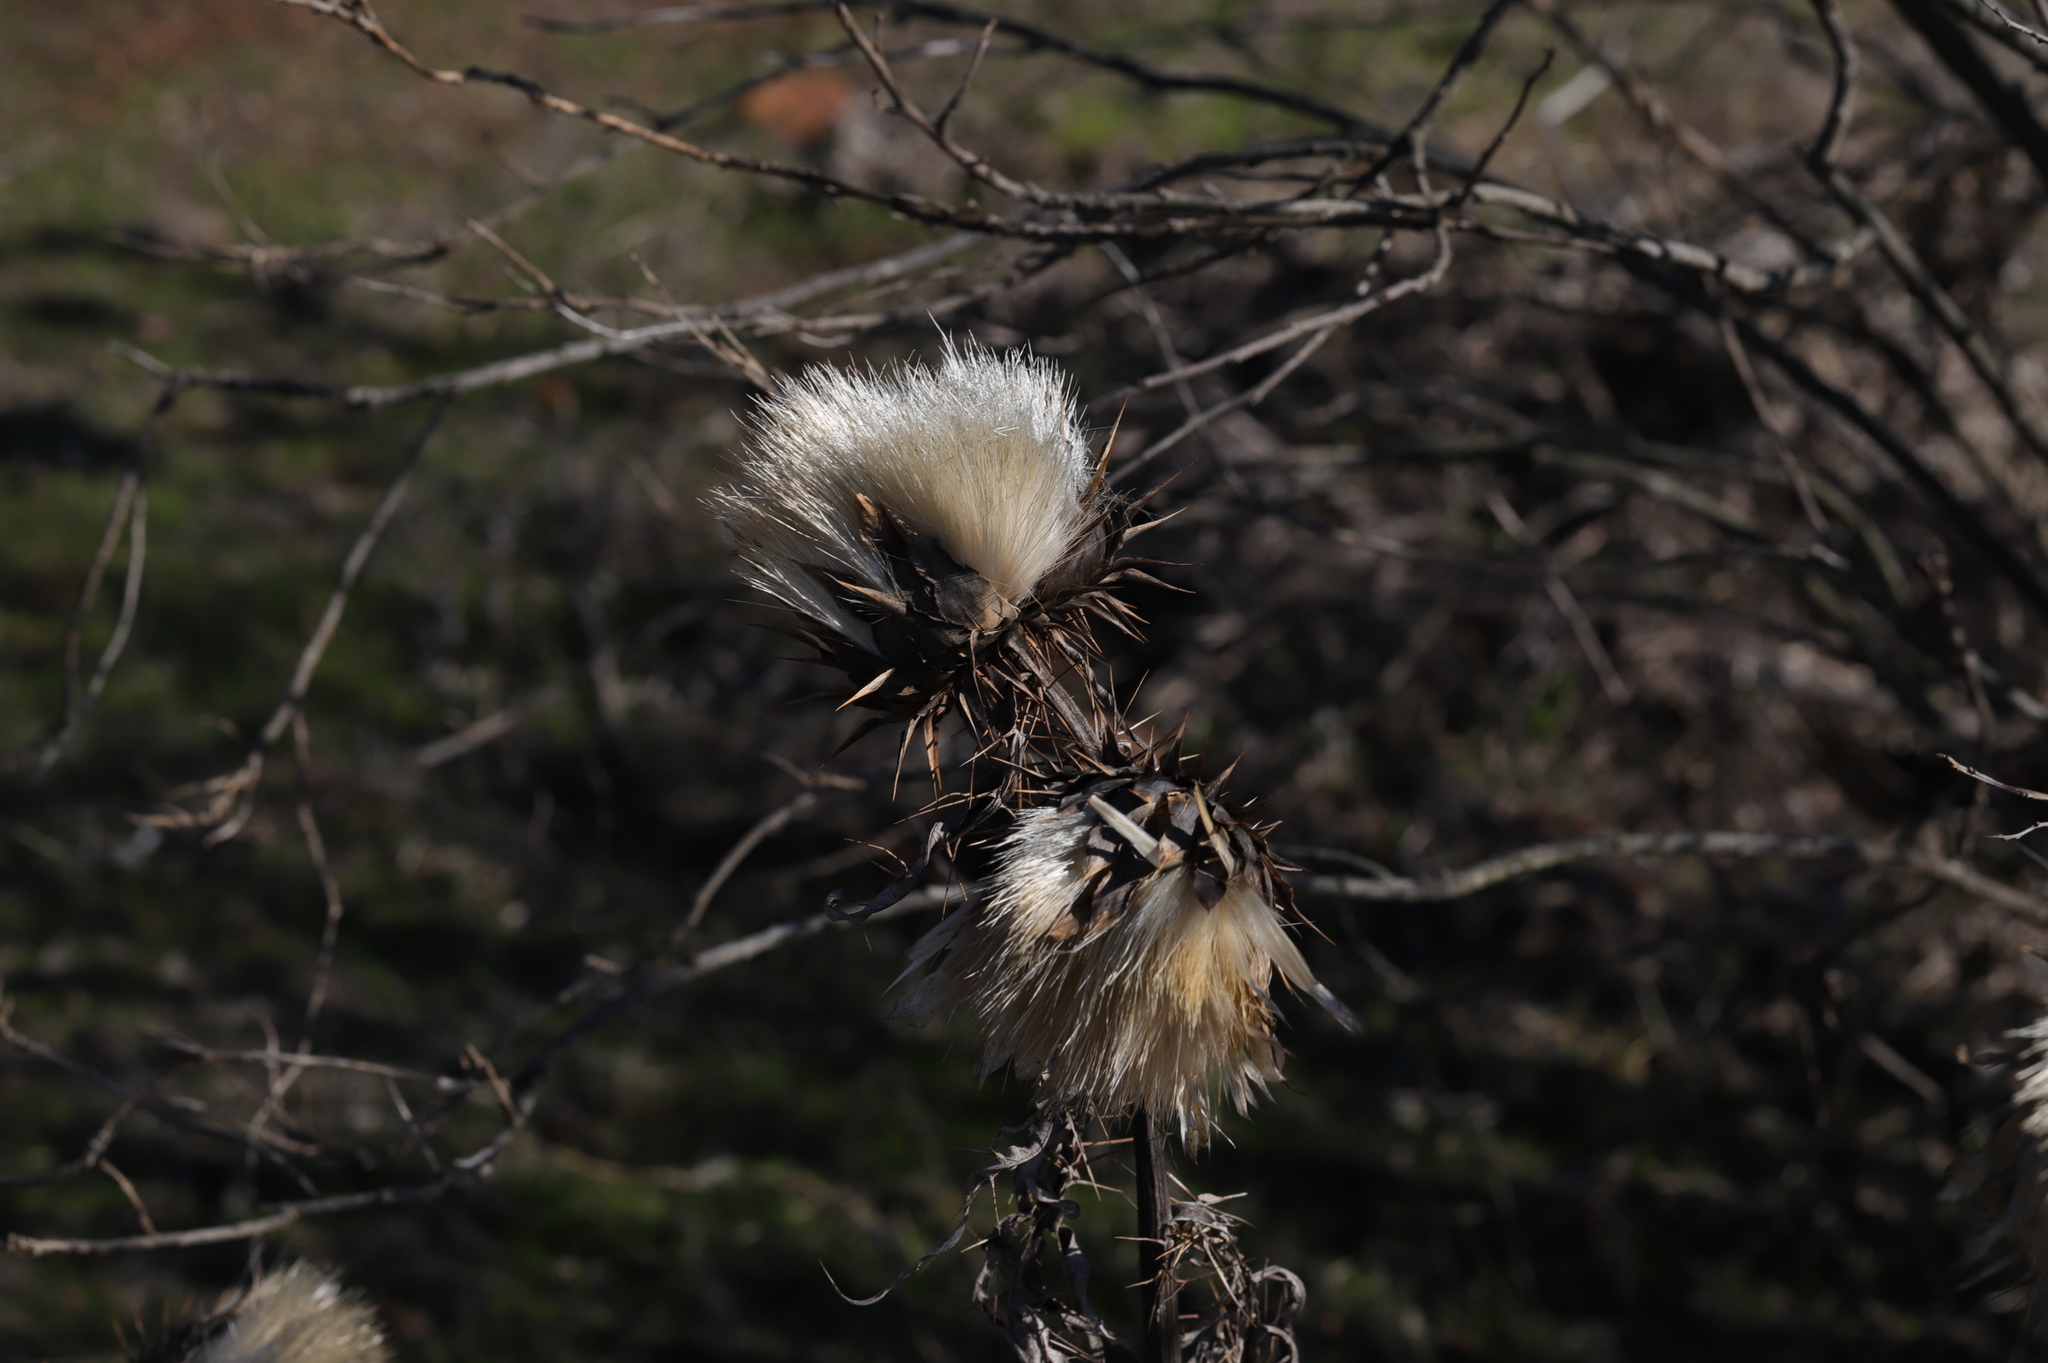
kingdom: Plantae
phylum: Tracheophyta
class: Magnoliopsida
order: Asterales
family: Asteraceae
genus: Cynara
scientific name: Cynara cardunculus
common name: Globe artichoke
